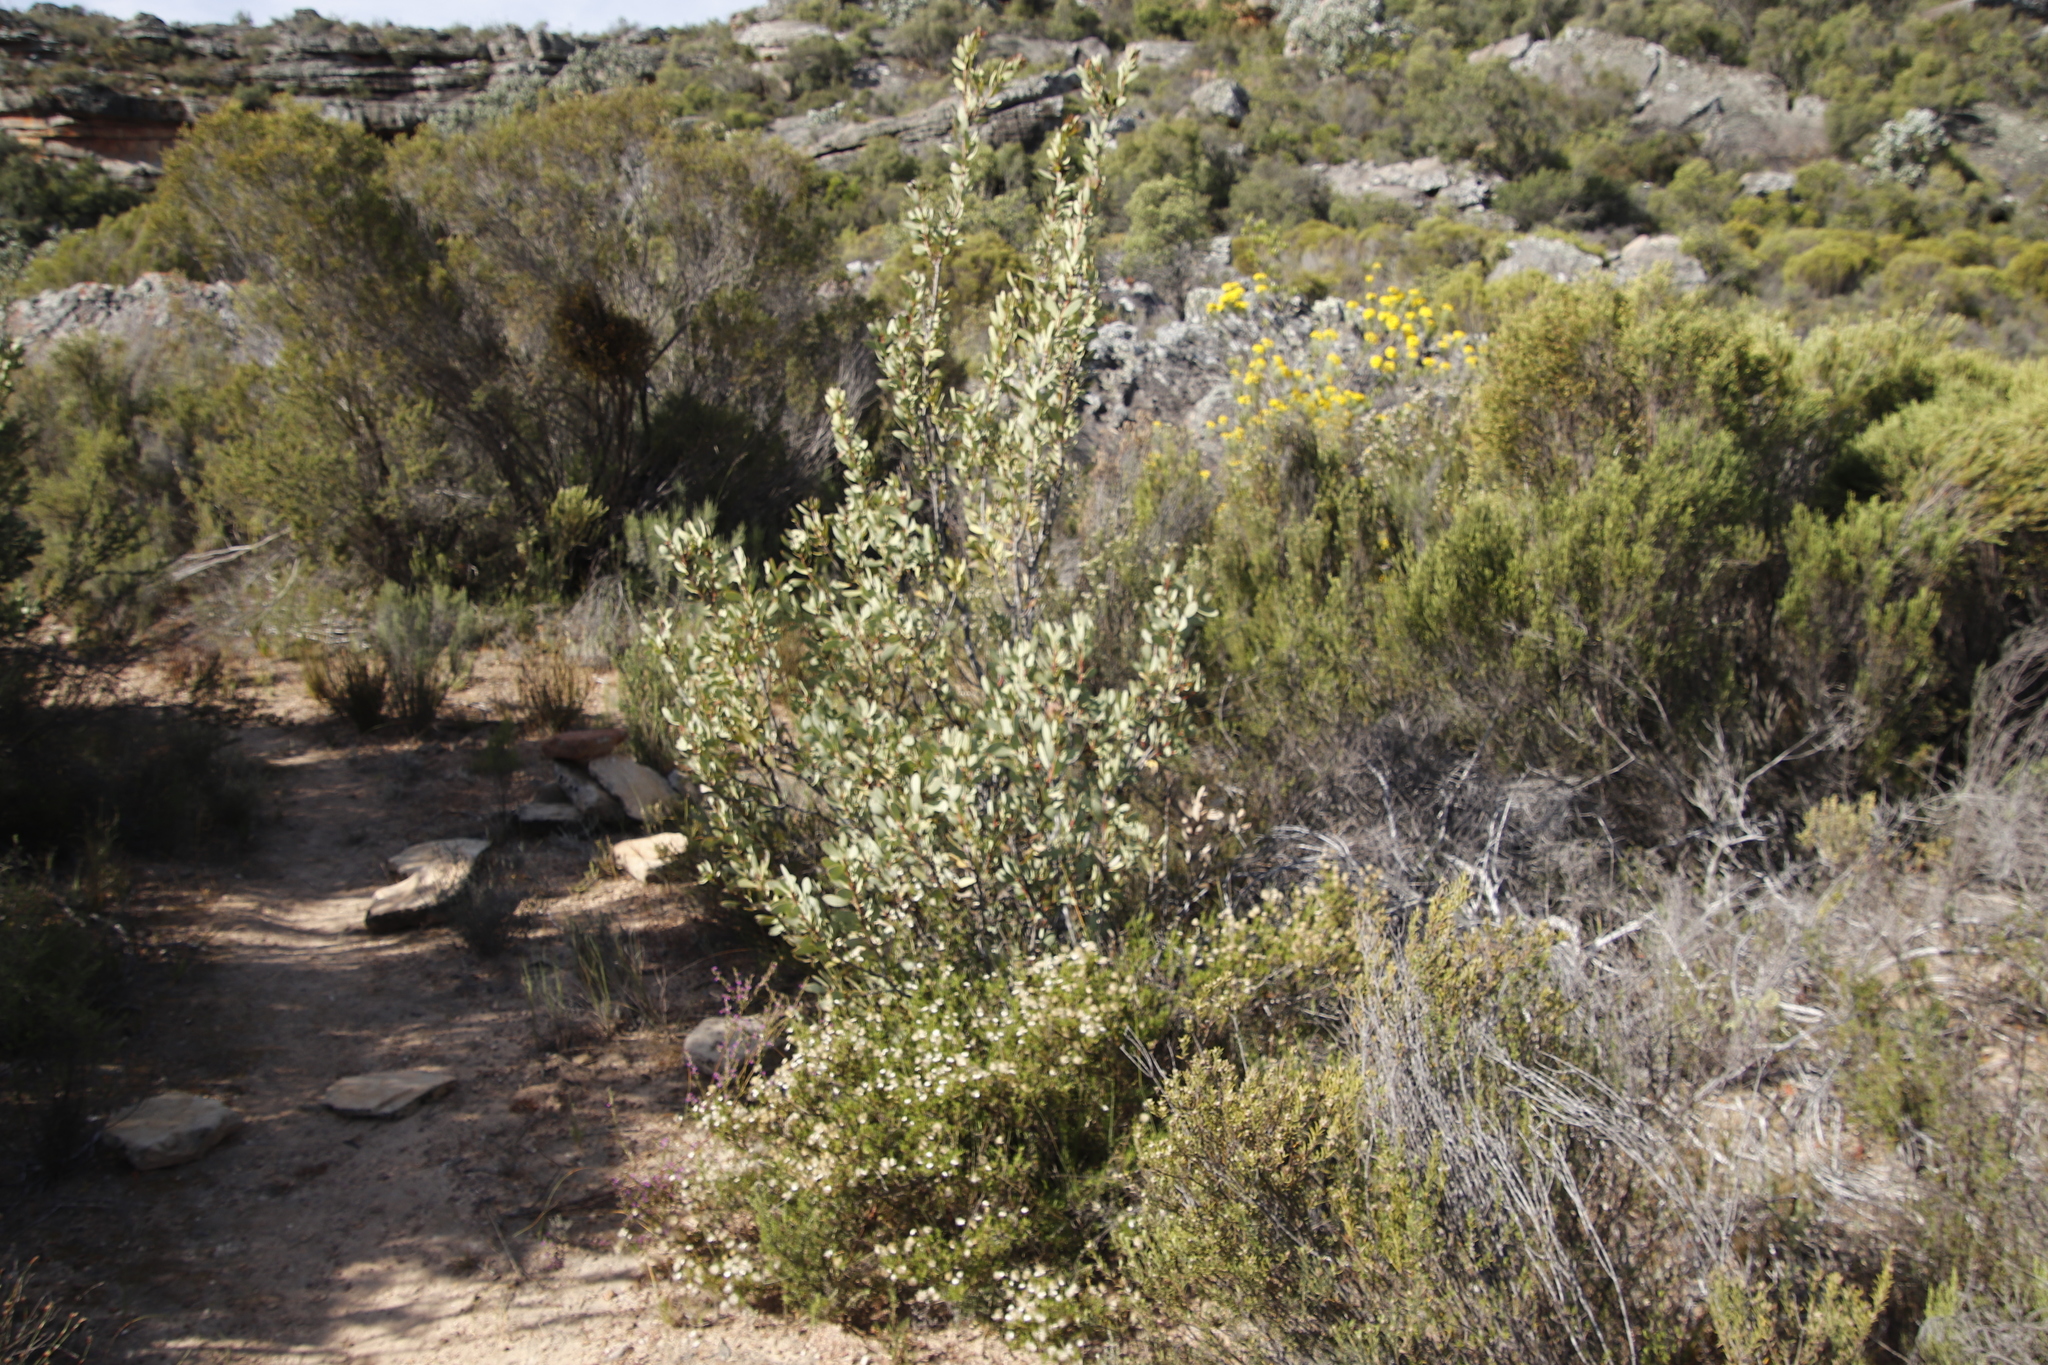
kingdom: Plantae
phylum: Tracheophyta
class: Magnoliopsida
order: Proteales
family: Proteaceae
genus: Protea
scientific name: Protea glabra
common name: Chestnut sugarbush
